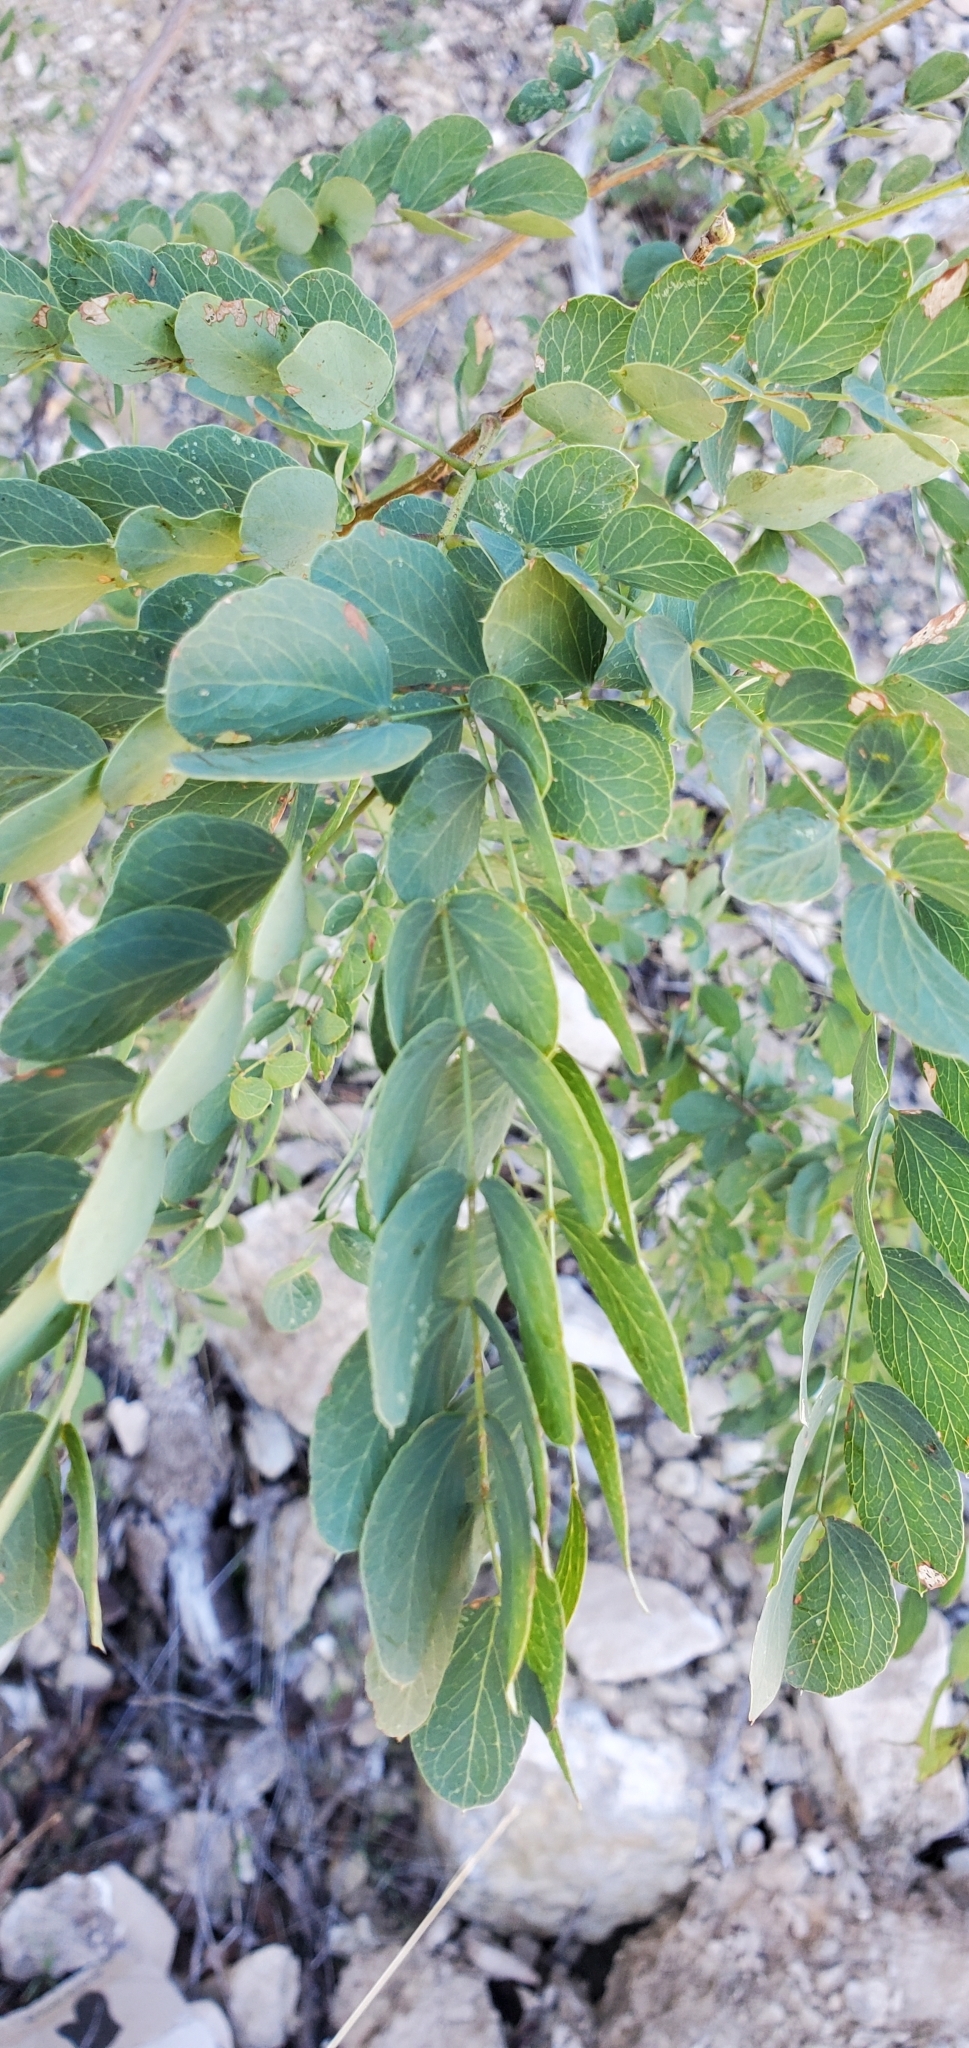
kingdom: Plantae
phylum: Tracheophyta
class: Magnoliopsida
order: Fabales
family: Fabaceae
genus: Leucaena
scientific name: Leucaena retusa
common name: Littleleaf leadtree
